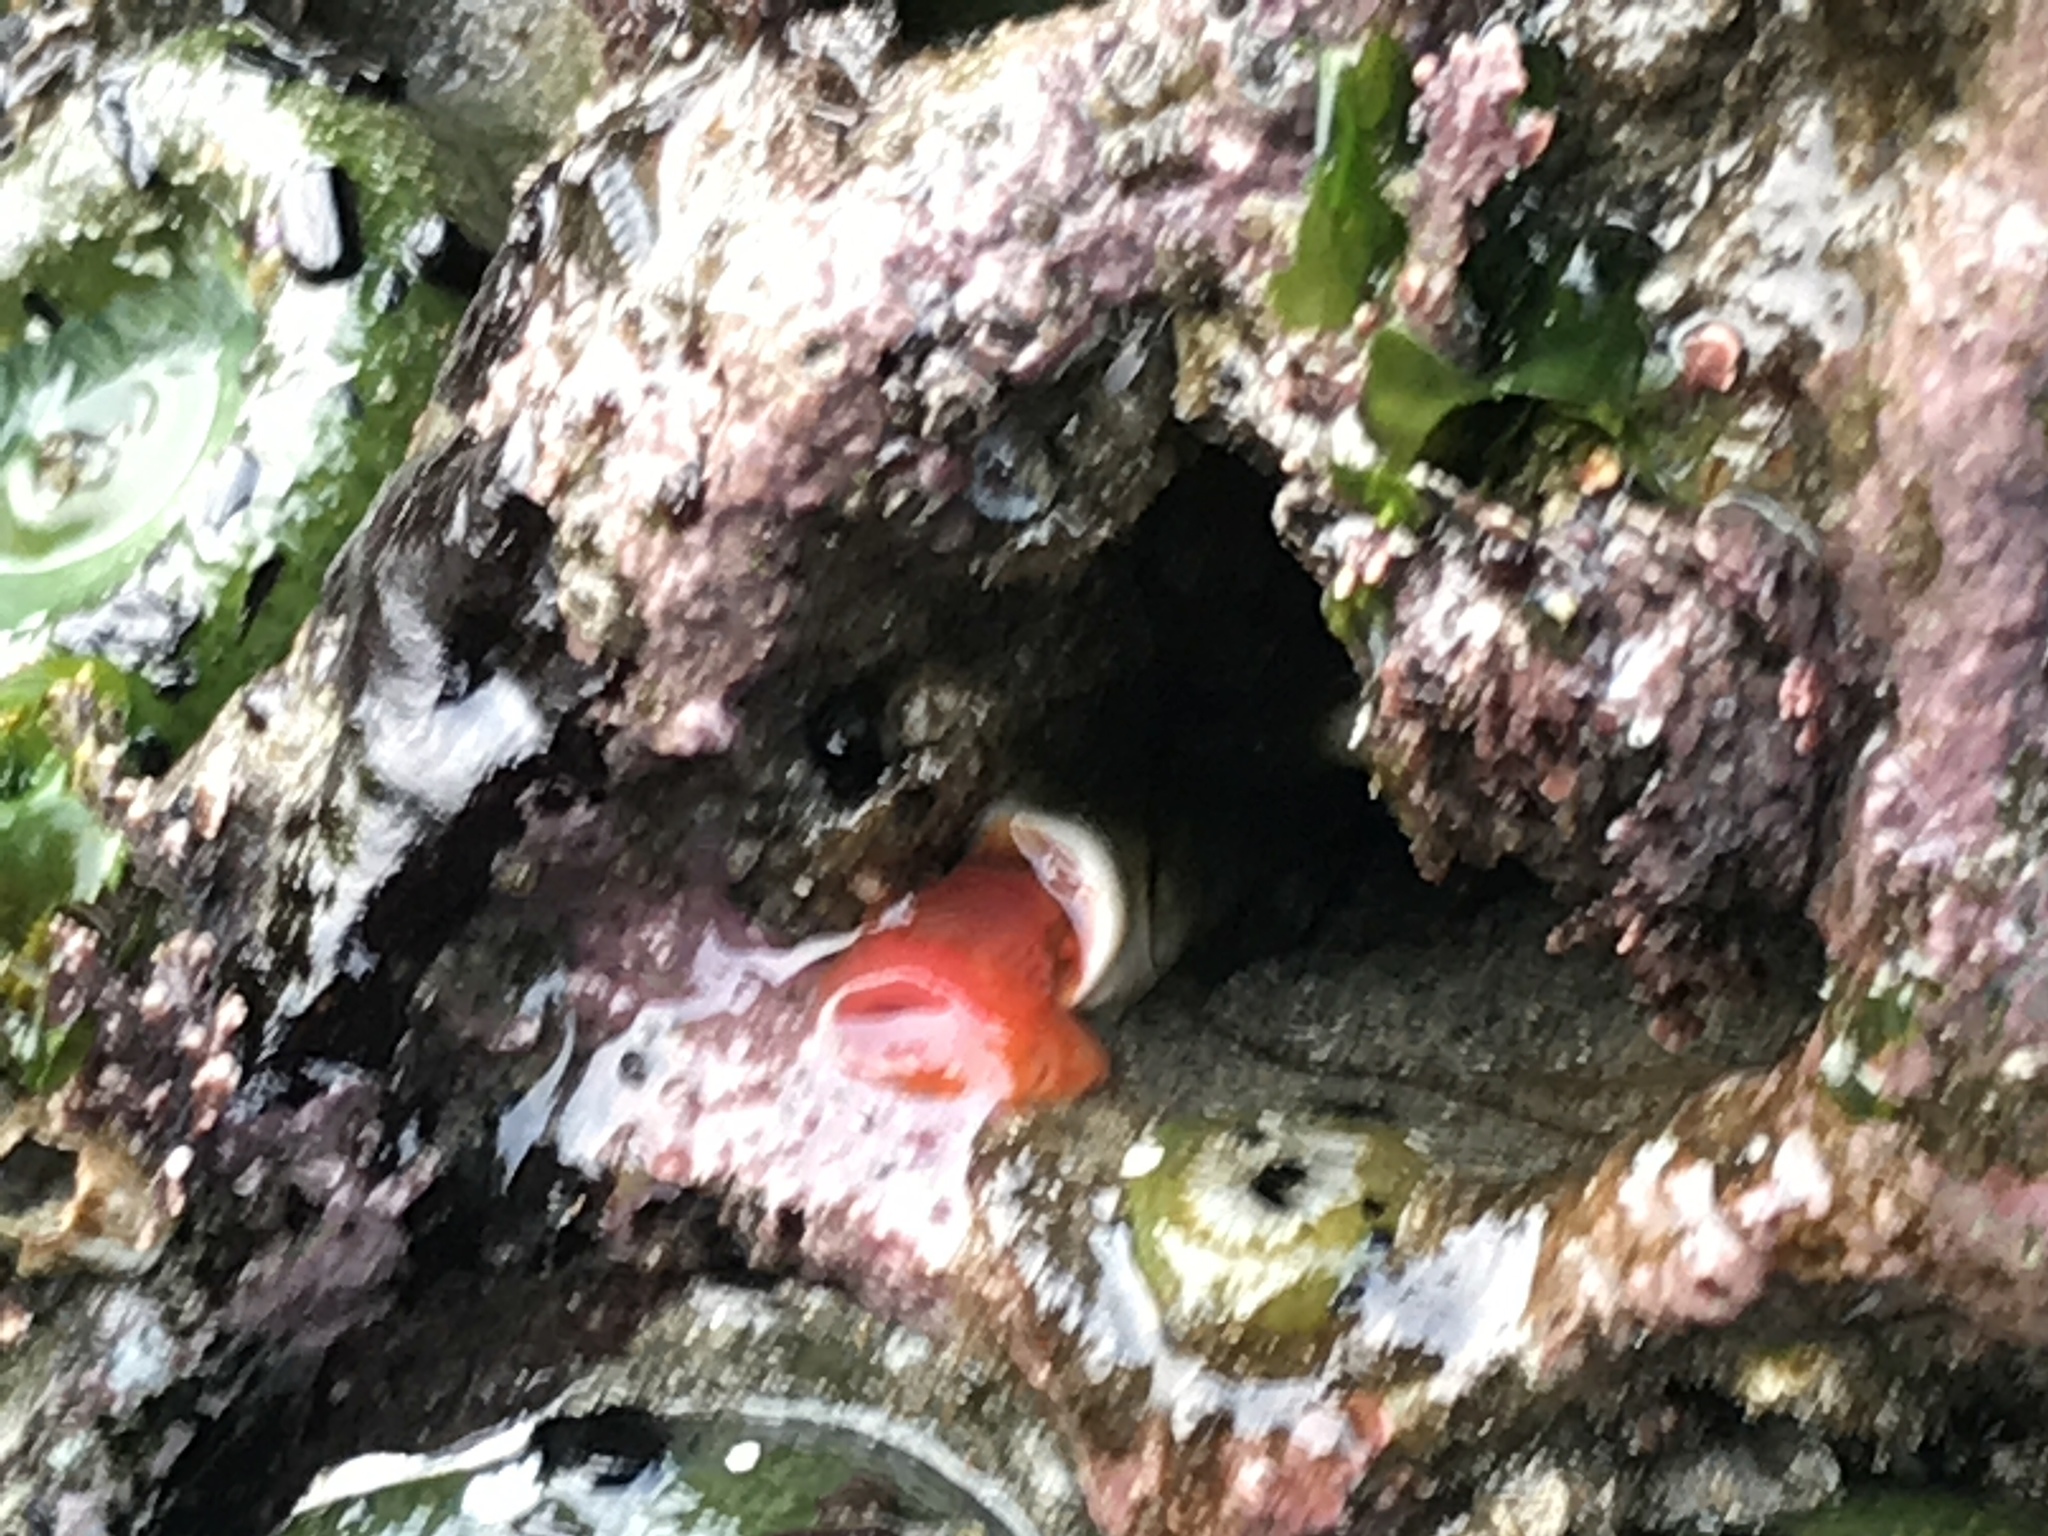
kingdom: Animalia
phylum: Annelida
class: Polychaeta
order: Sabellida
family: Serpulidae
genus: Serpula
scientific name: Serpula columbiana
